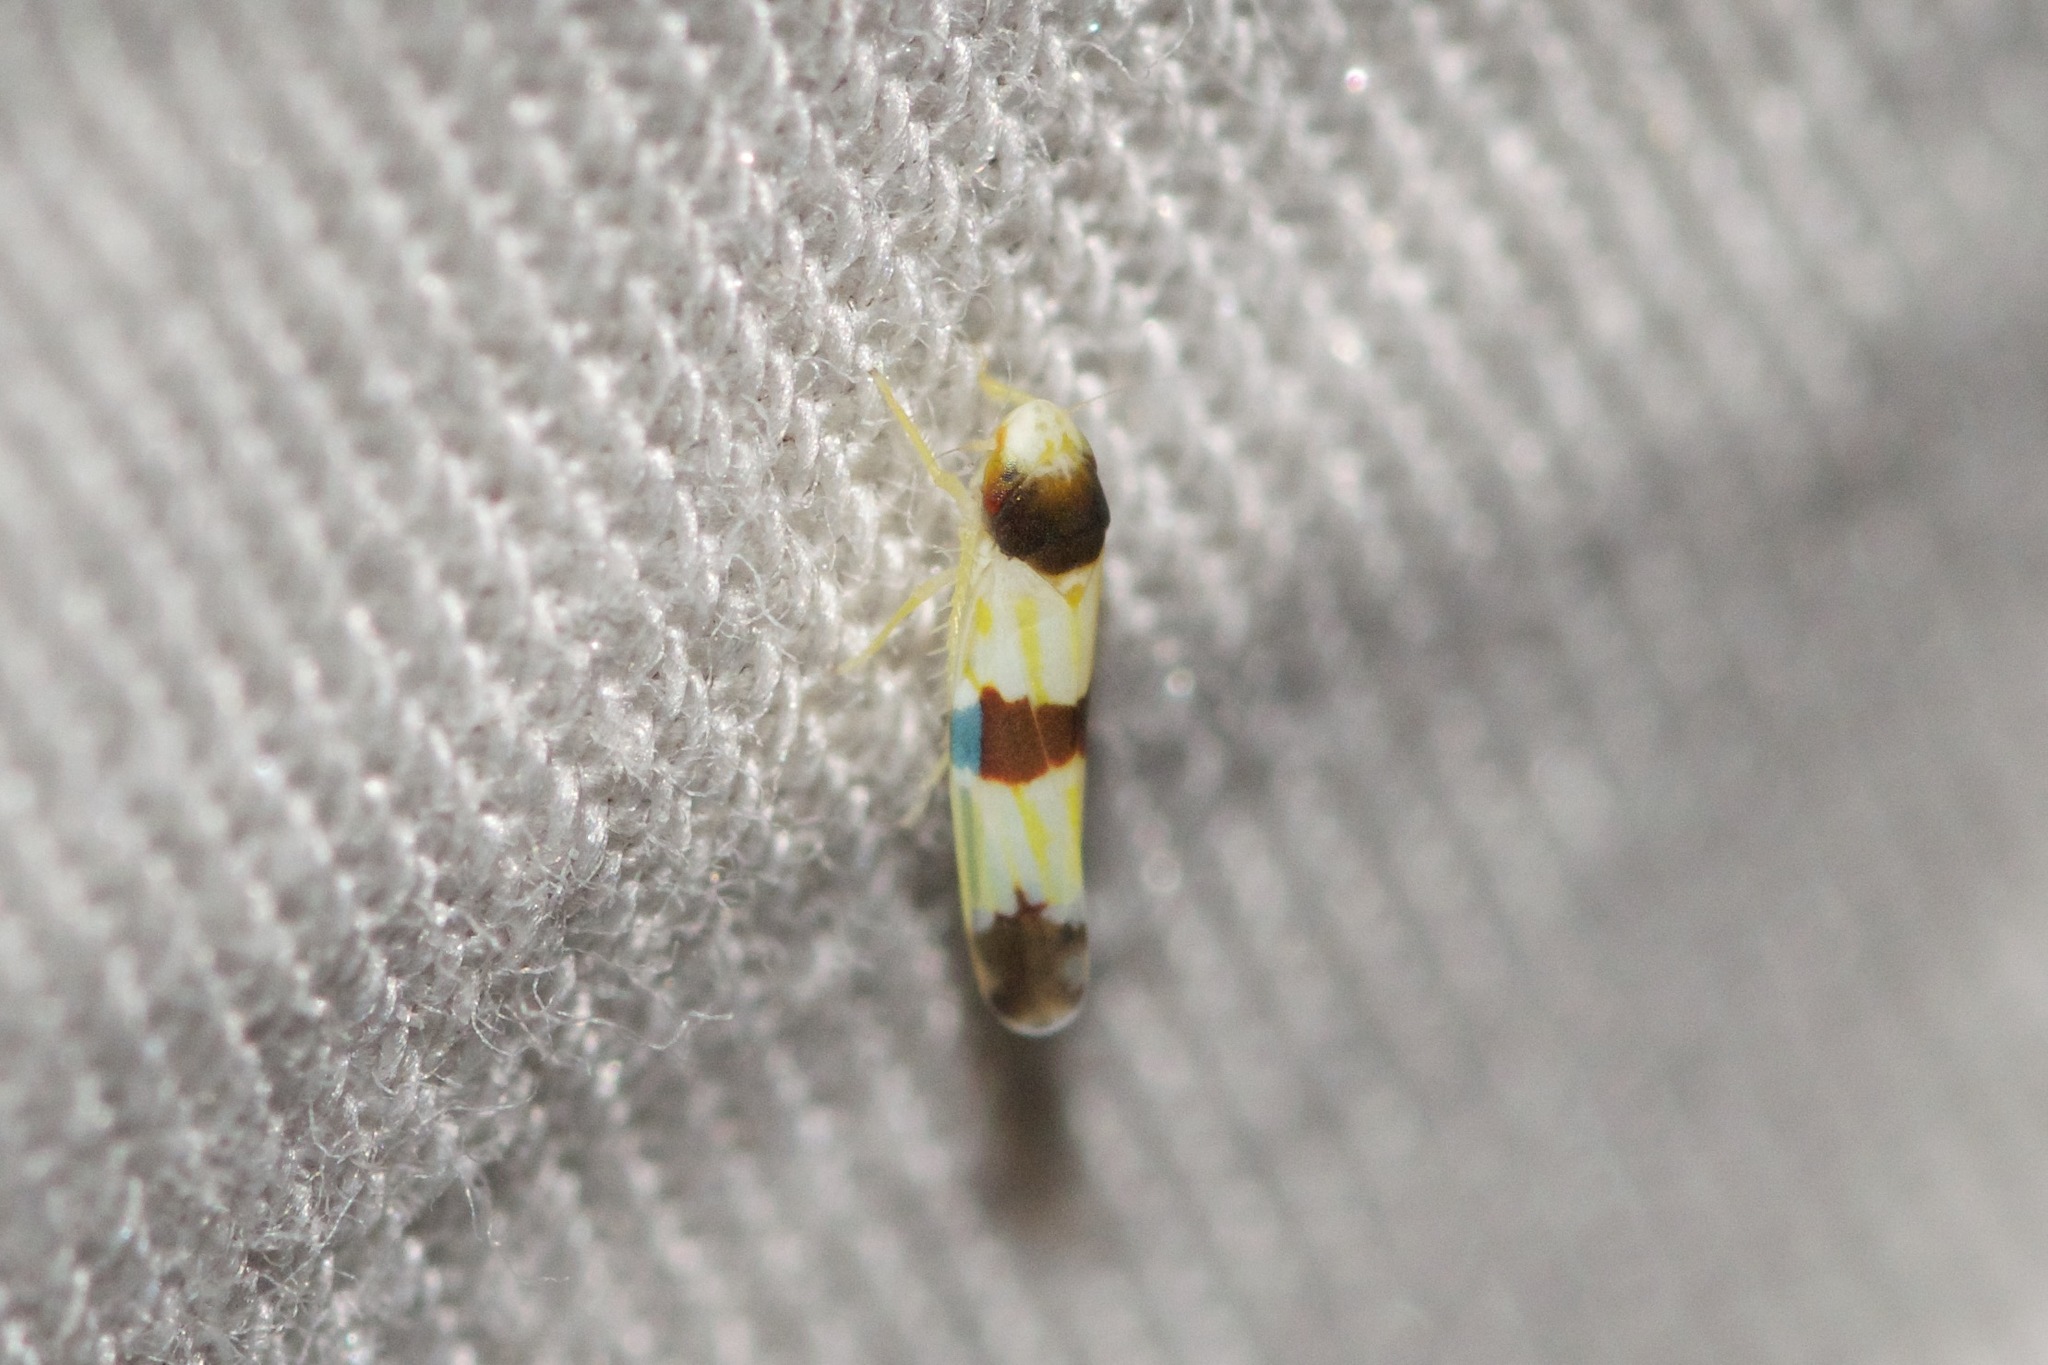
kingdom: Animalia
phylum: Arthropoda
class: Insecta
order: Hemiptera
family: Cicadellidae
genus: Erythroneura
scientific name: Erythroneura tricincta
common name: The threebanded grape leafhopper
